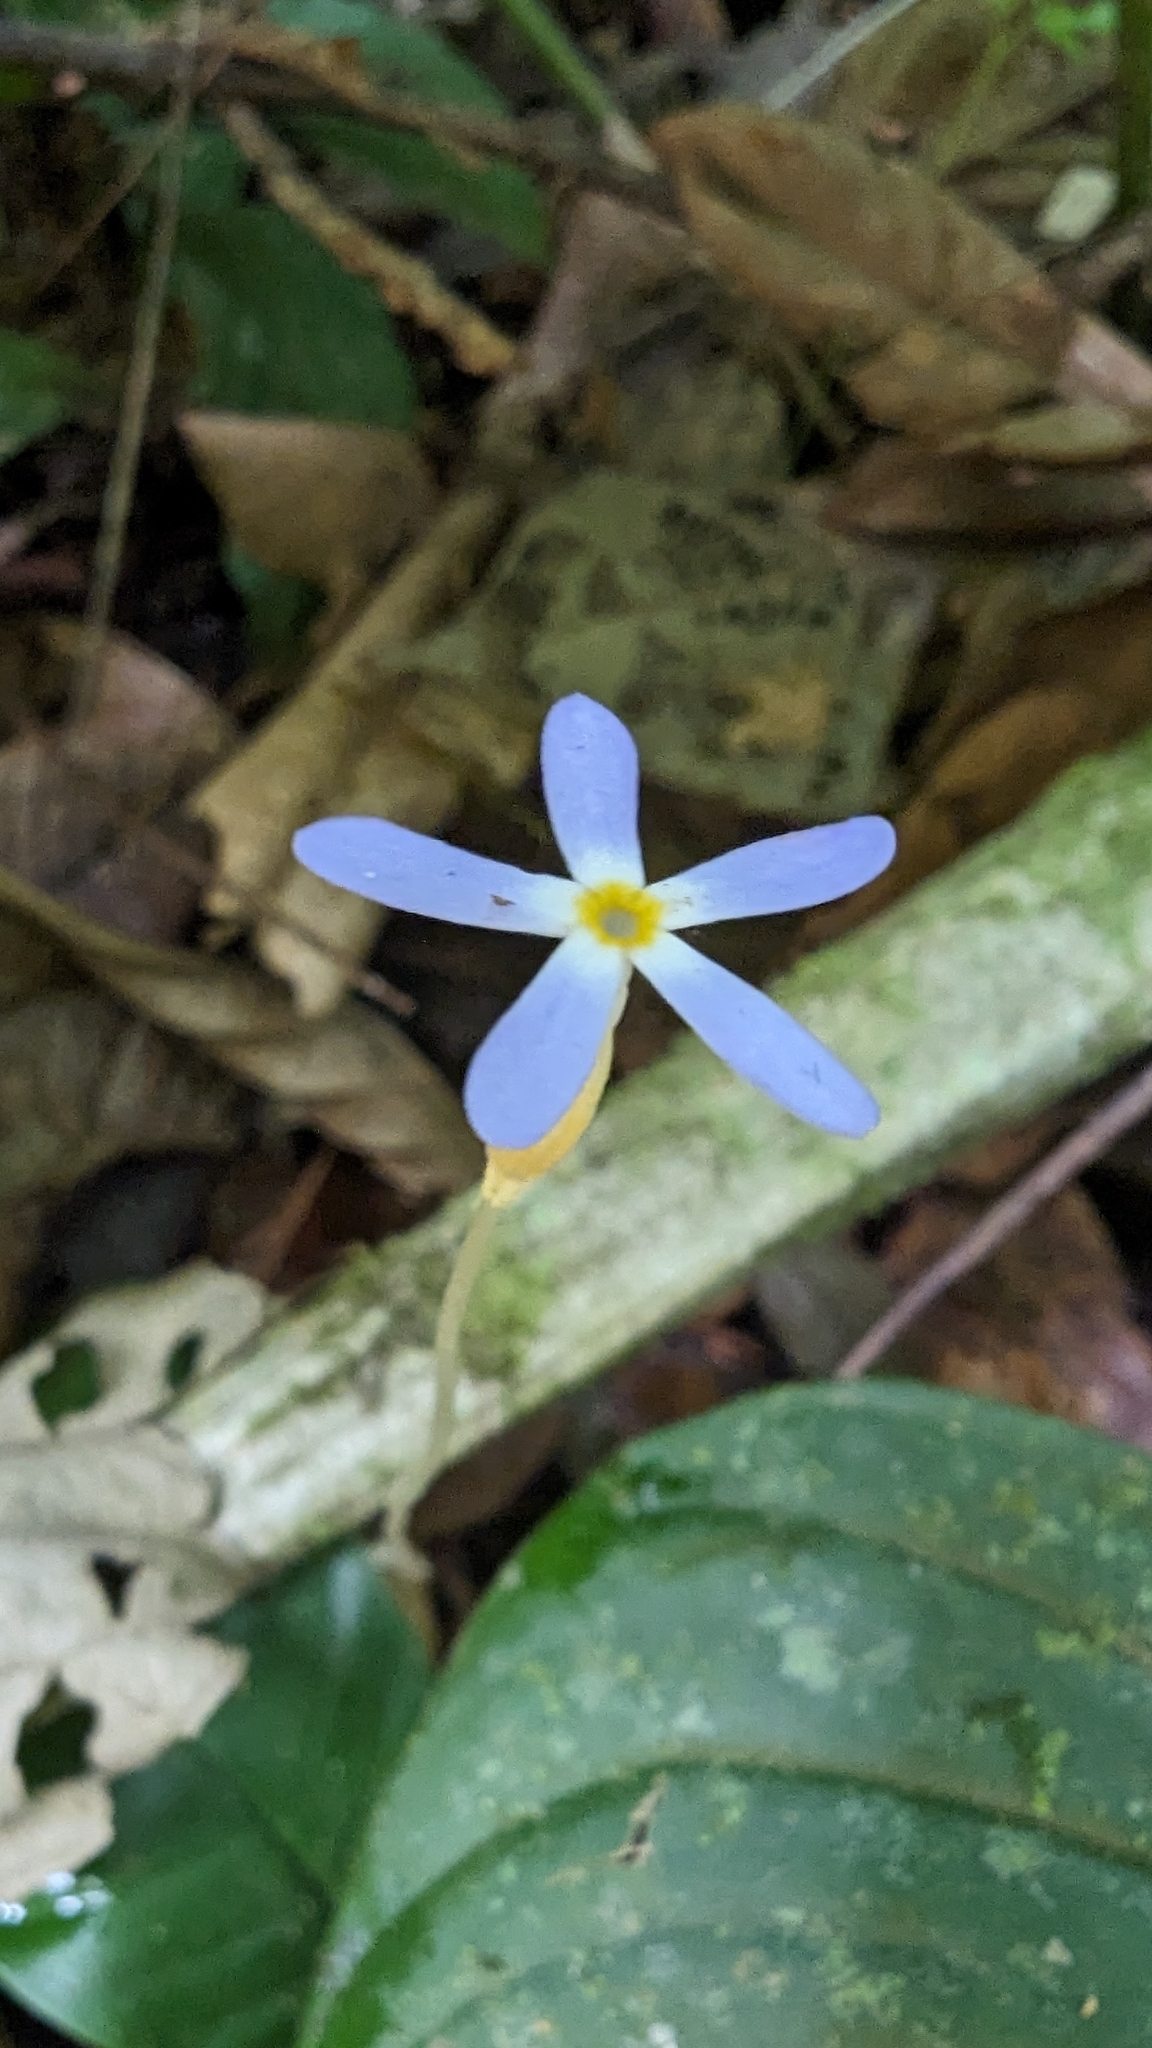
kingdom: Plantae
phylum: Tracheophyta
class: Magnoliopsida
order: Gentianales
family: Gentianaceae
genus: Voyria
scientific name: Voyria tenella
